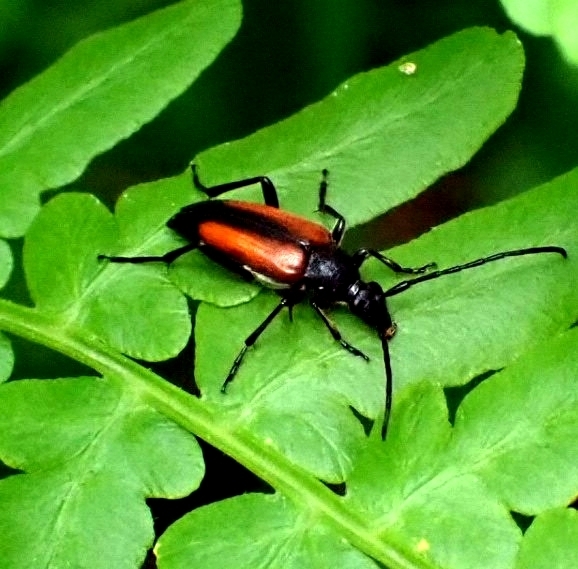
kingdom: Animalia
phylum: Arthropoda
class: Insecta
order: Coleoptera
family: Cerambycidae
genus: Stenurella
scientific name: Stenurella melanura
